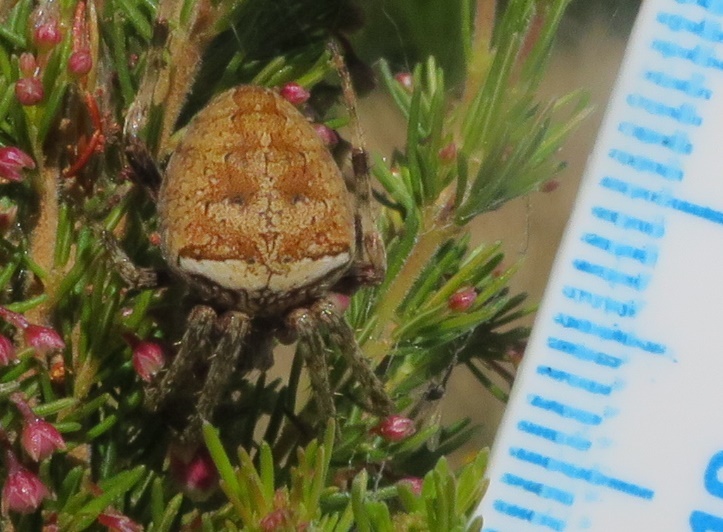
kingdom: Animalia
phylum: Arthropoda
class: Arachnida
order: Araneae
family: Araneidae
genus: Zealaranea
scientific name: Zealaranea crassa
